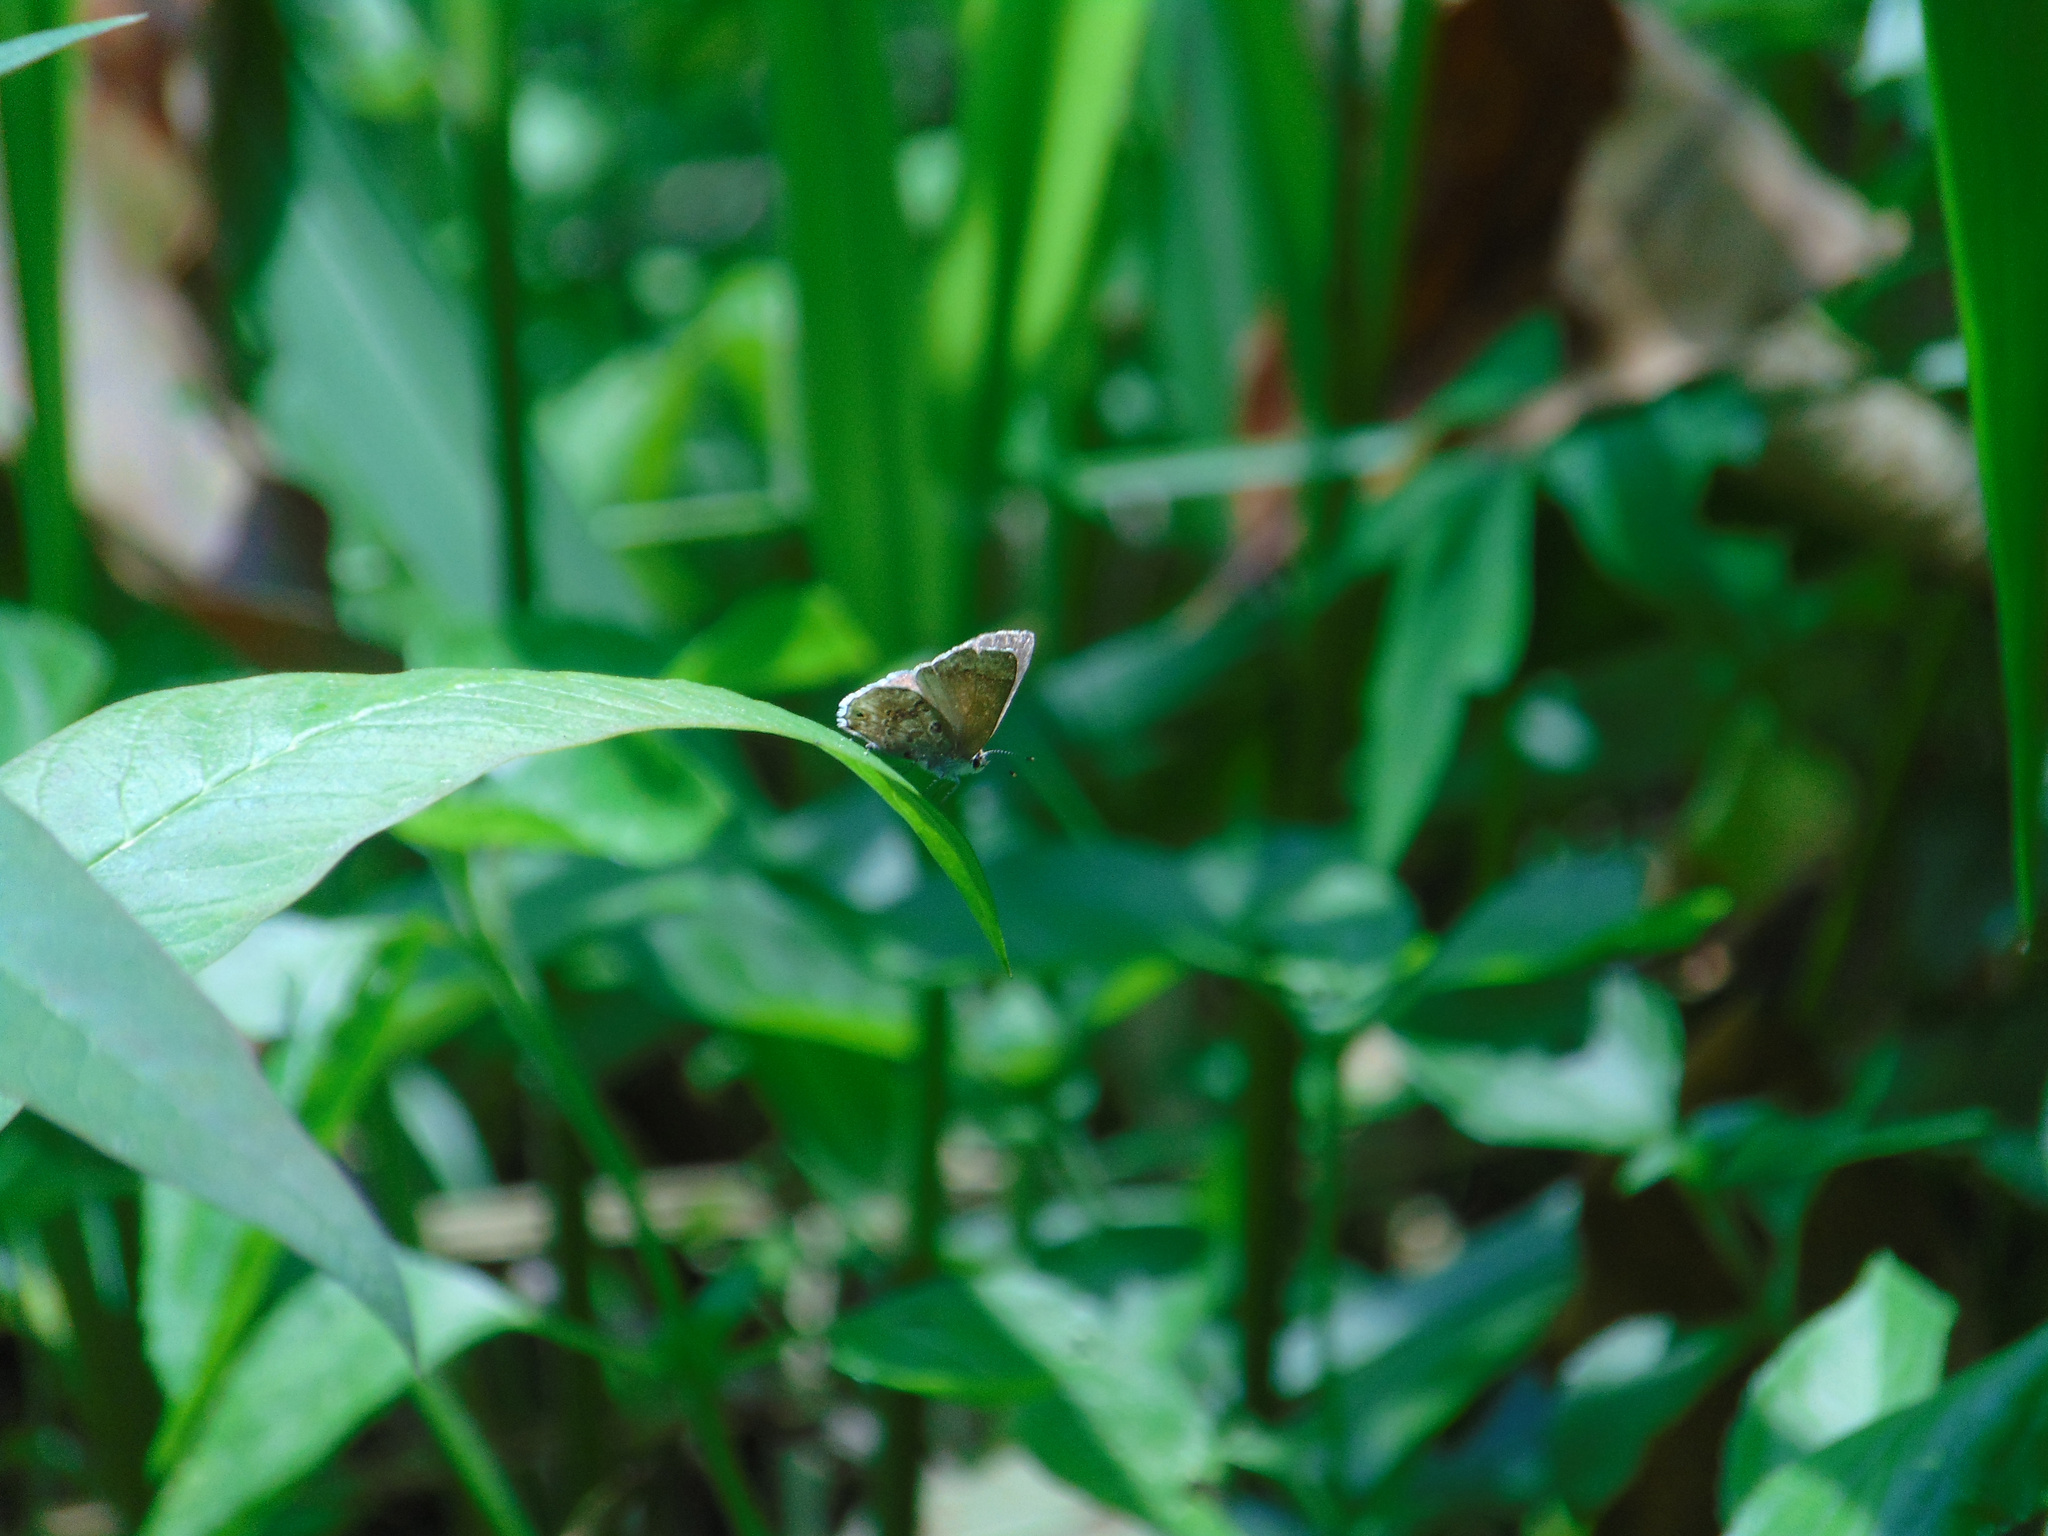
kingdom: Animalia
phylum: Arthropoda
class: Insecta
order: Lepidoptera
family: Lycaenidae
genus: Thecla
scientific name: Thecla cestri
